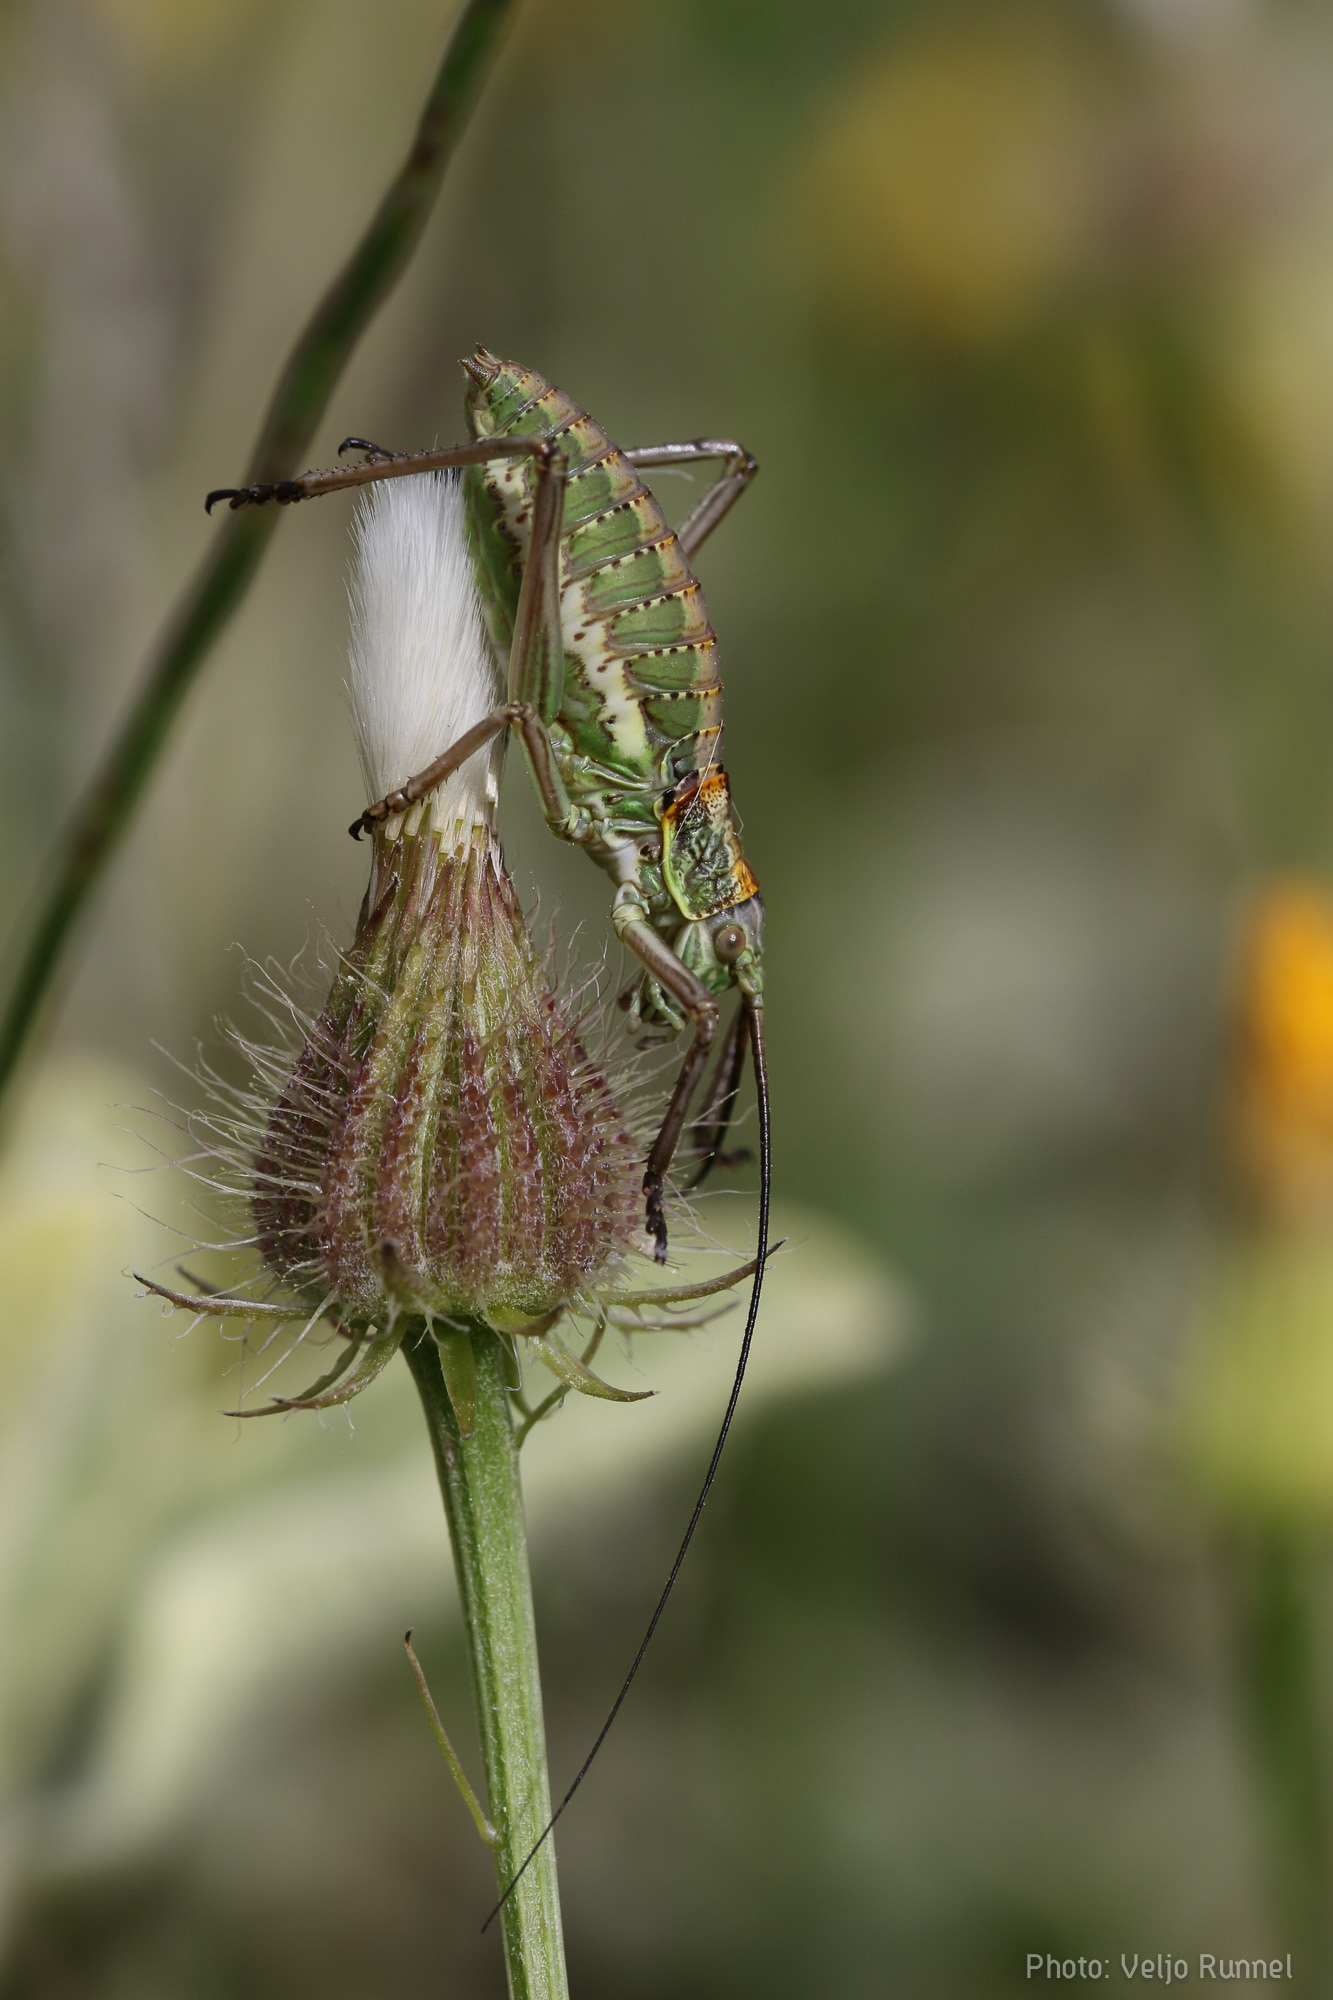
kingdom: Animalia
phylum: Arthropoda
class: Insecta
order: Orthoptera
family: Tettigoniidae
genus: Uromenus
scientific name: Uromenus elegans
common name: Elegant saddle bush-cricket
